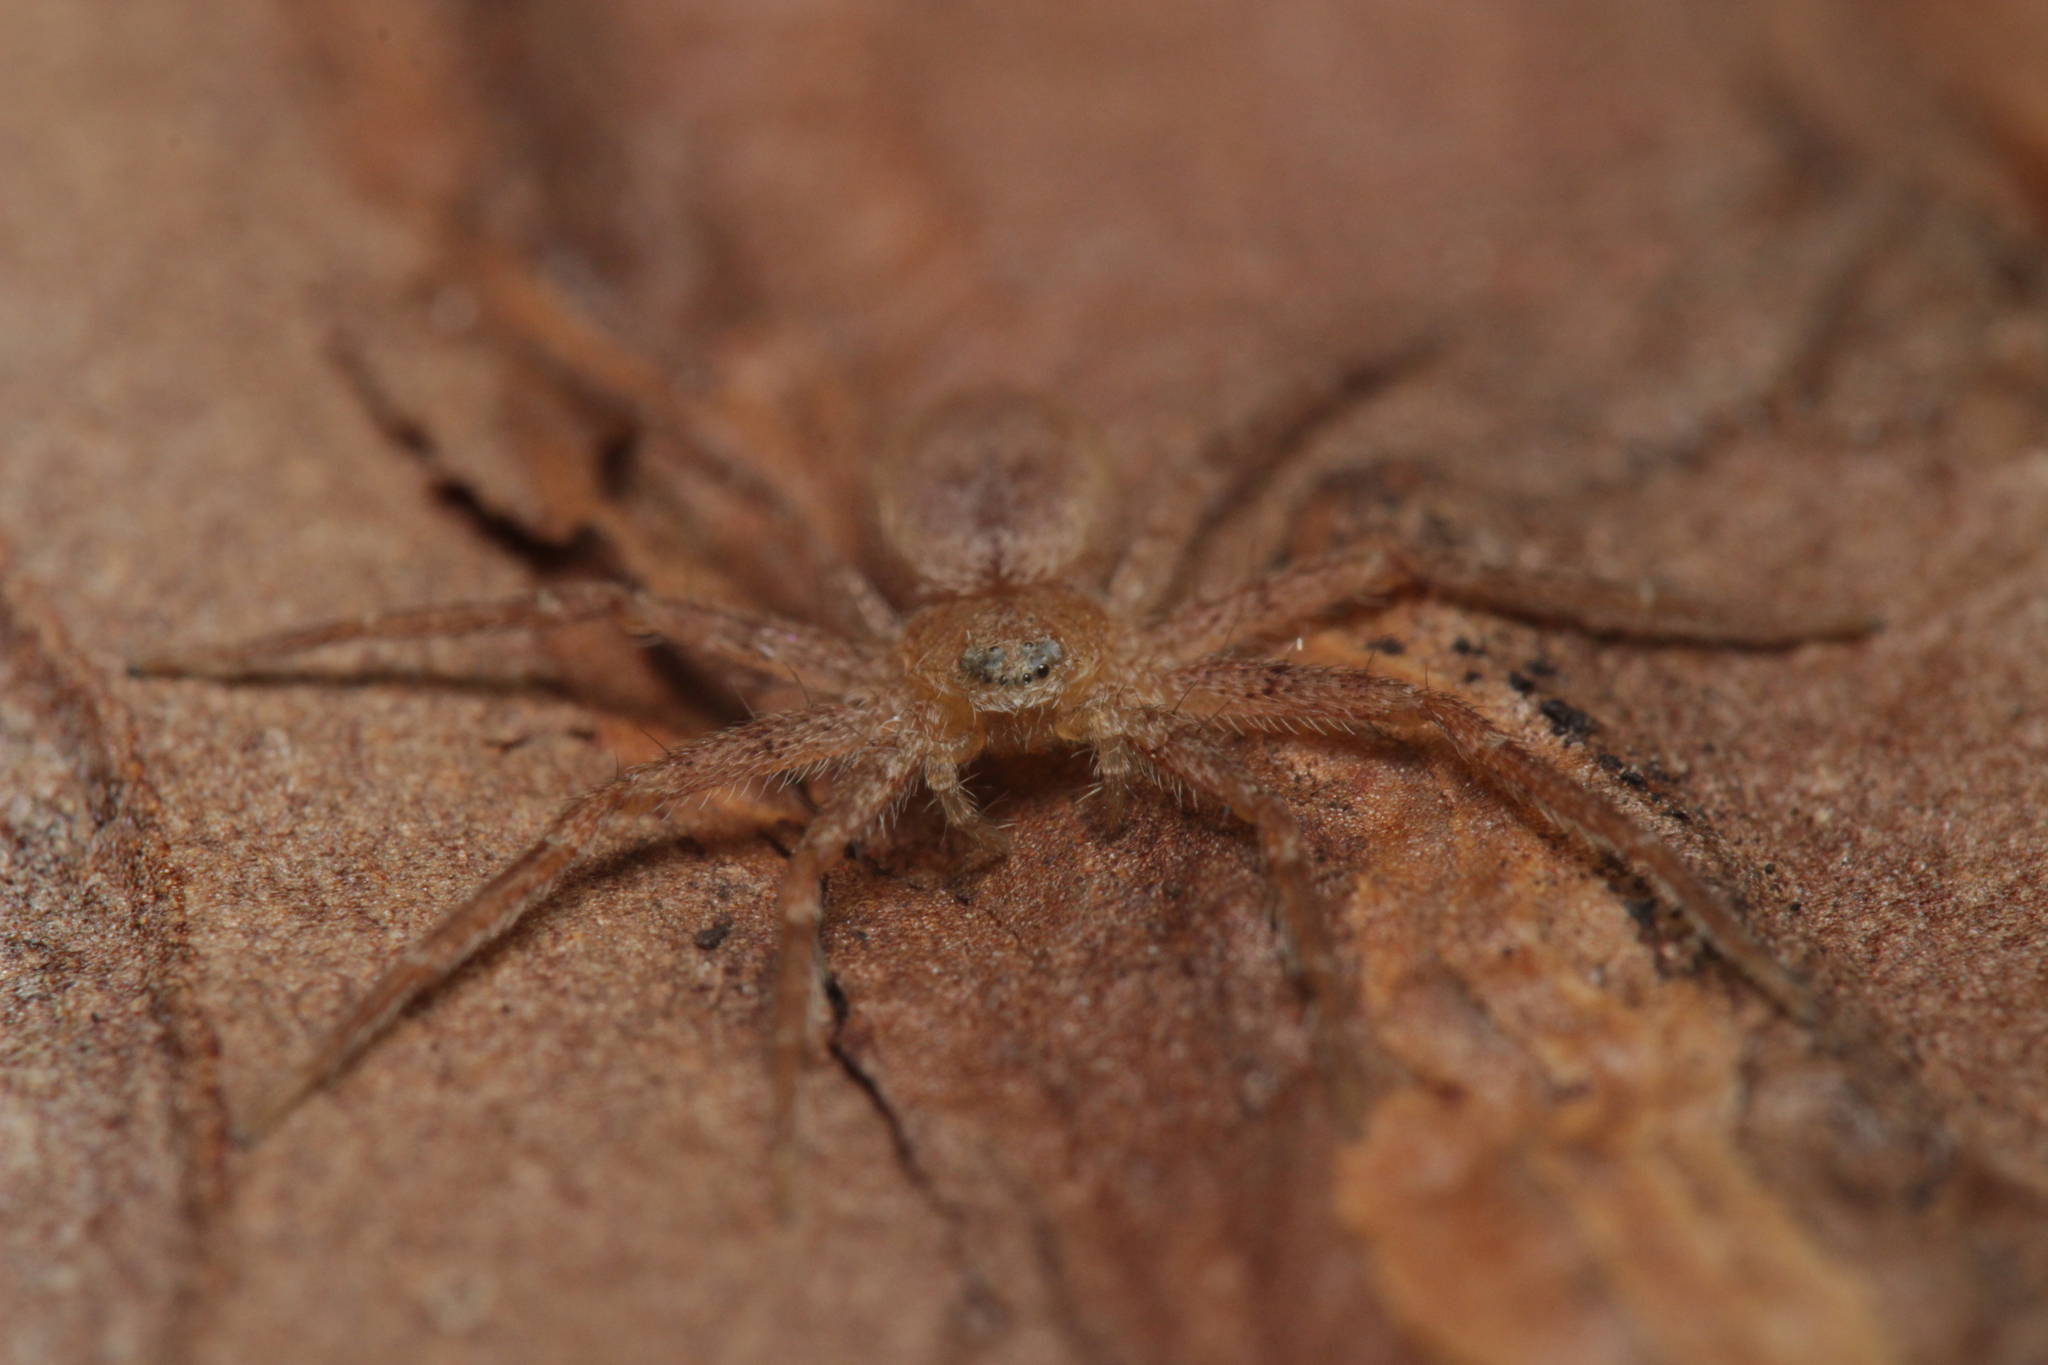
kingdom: Animalia
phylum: Arthropoda
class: Arachnida
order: Araneae
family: Philodromidae
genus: Philodromus
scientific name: Philodromus fuscomarginatus
